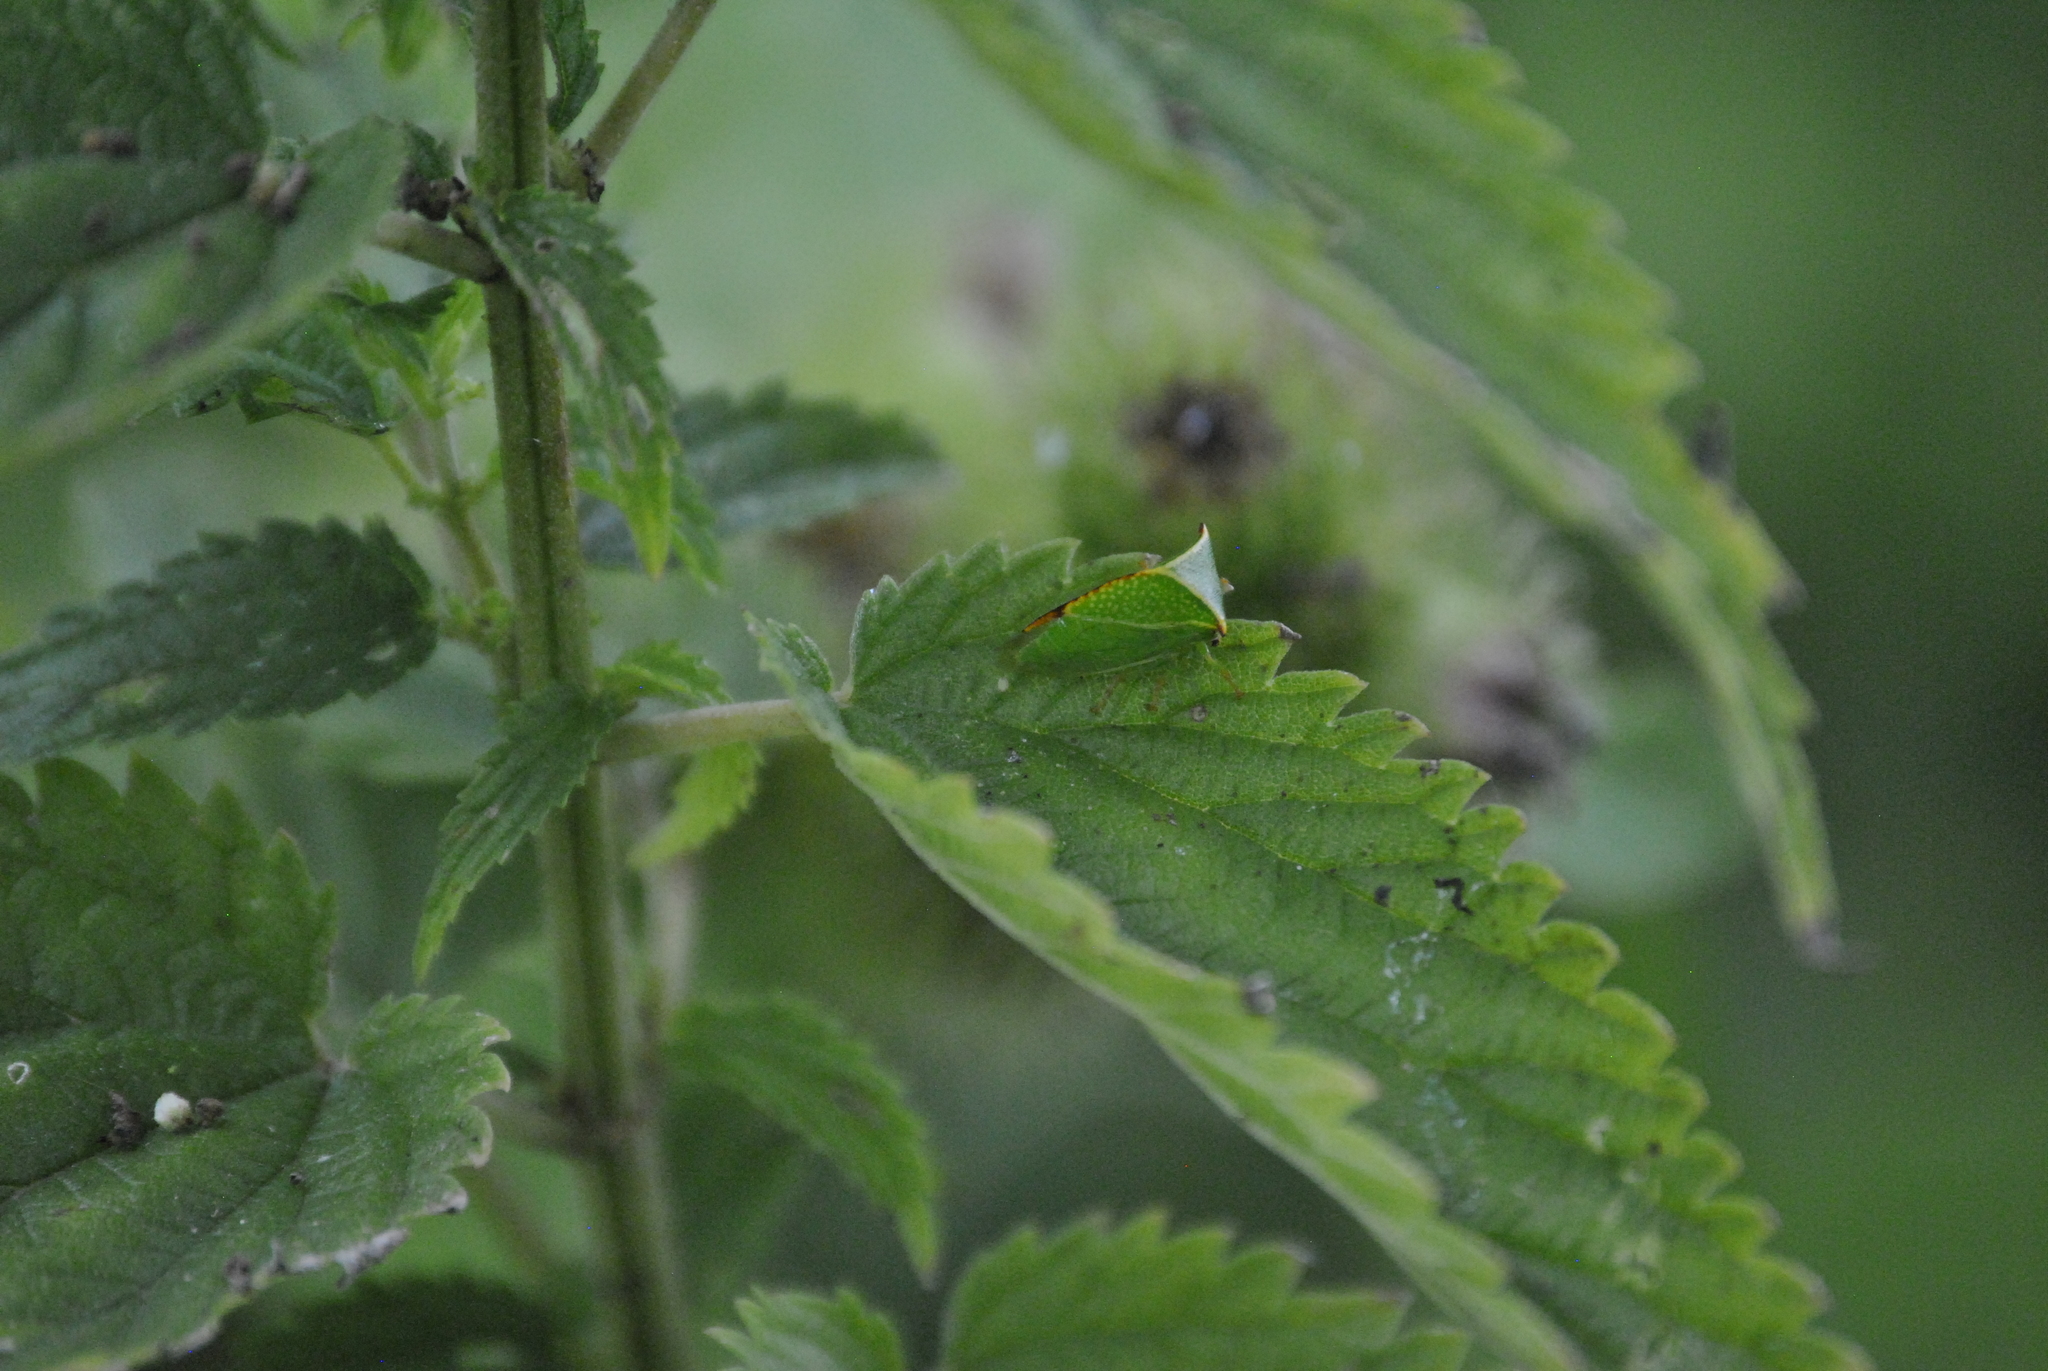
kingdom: Animalia
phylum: Arthropoda
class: Insecta
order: Hemiptera
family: Membracidae
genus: Stictocephala
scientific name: Stictocephala bisonia
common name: American buffalo treehopper
